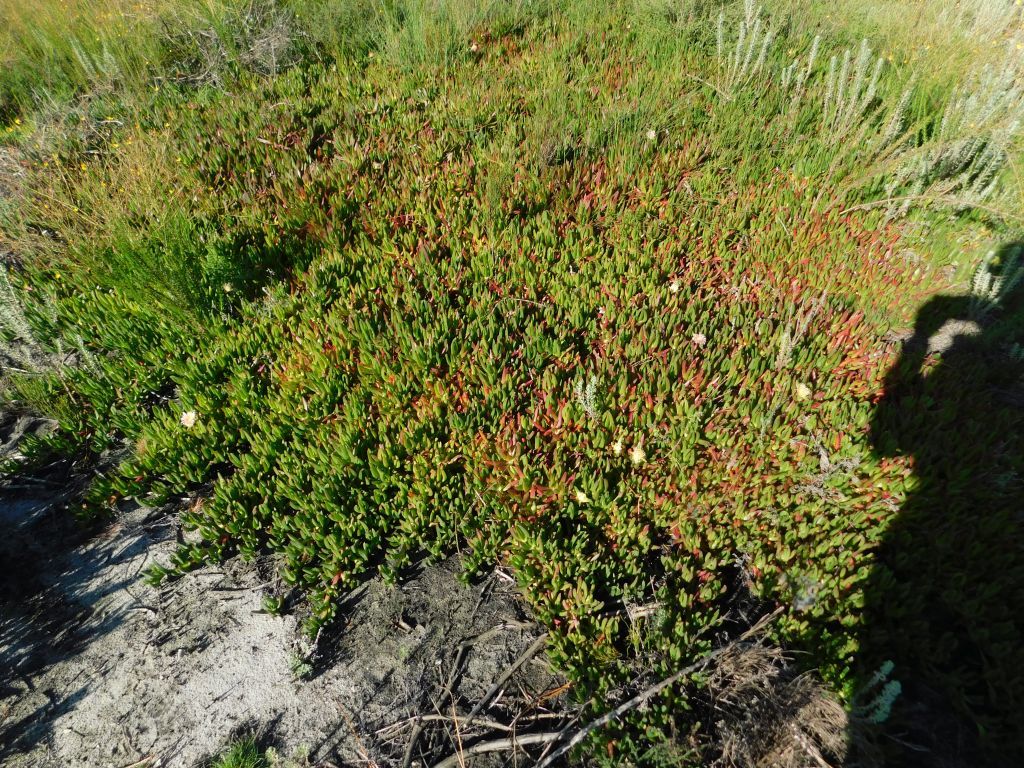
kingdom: Plantae
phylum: Tracheophyta
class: Magnoliopsida
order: Caryophyllales
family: Aizoaceae
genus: Carpobrotus
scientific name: Carpobrotus edulis
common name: Hottentot-fig
